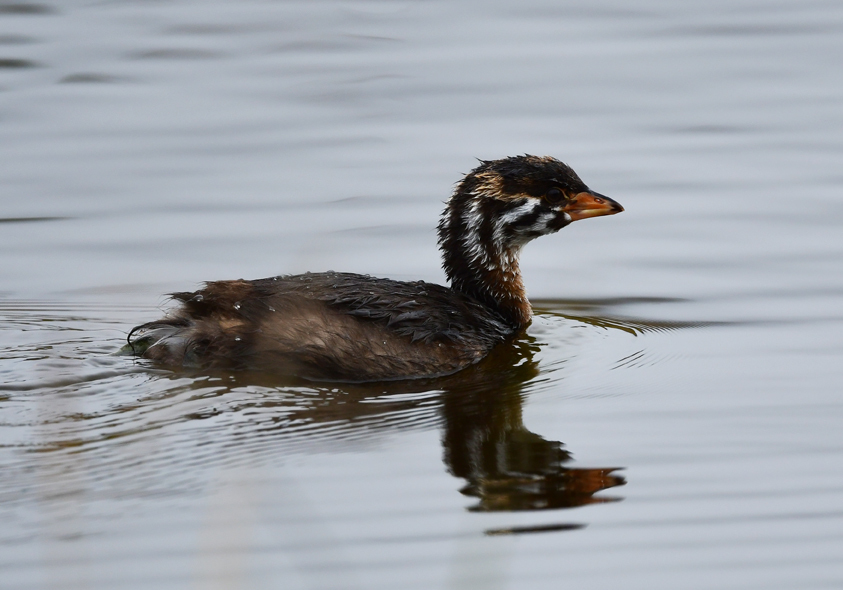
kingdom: Animalia
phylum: Chordata
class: Aves
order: Podicipediformes
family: Podicipedidae
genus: Podilymbus
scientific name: Podilymbus podiceps
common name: Pied-billed grebe
